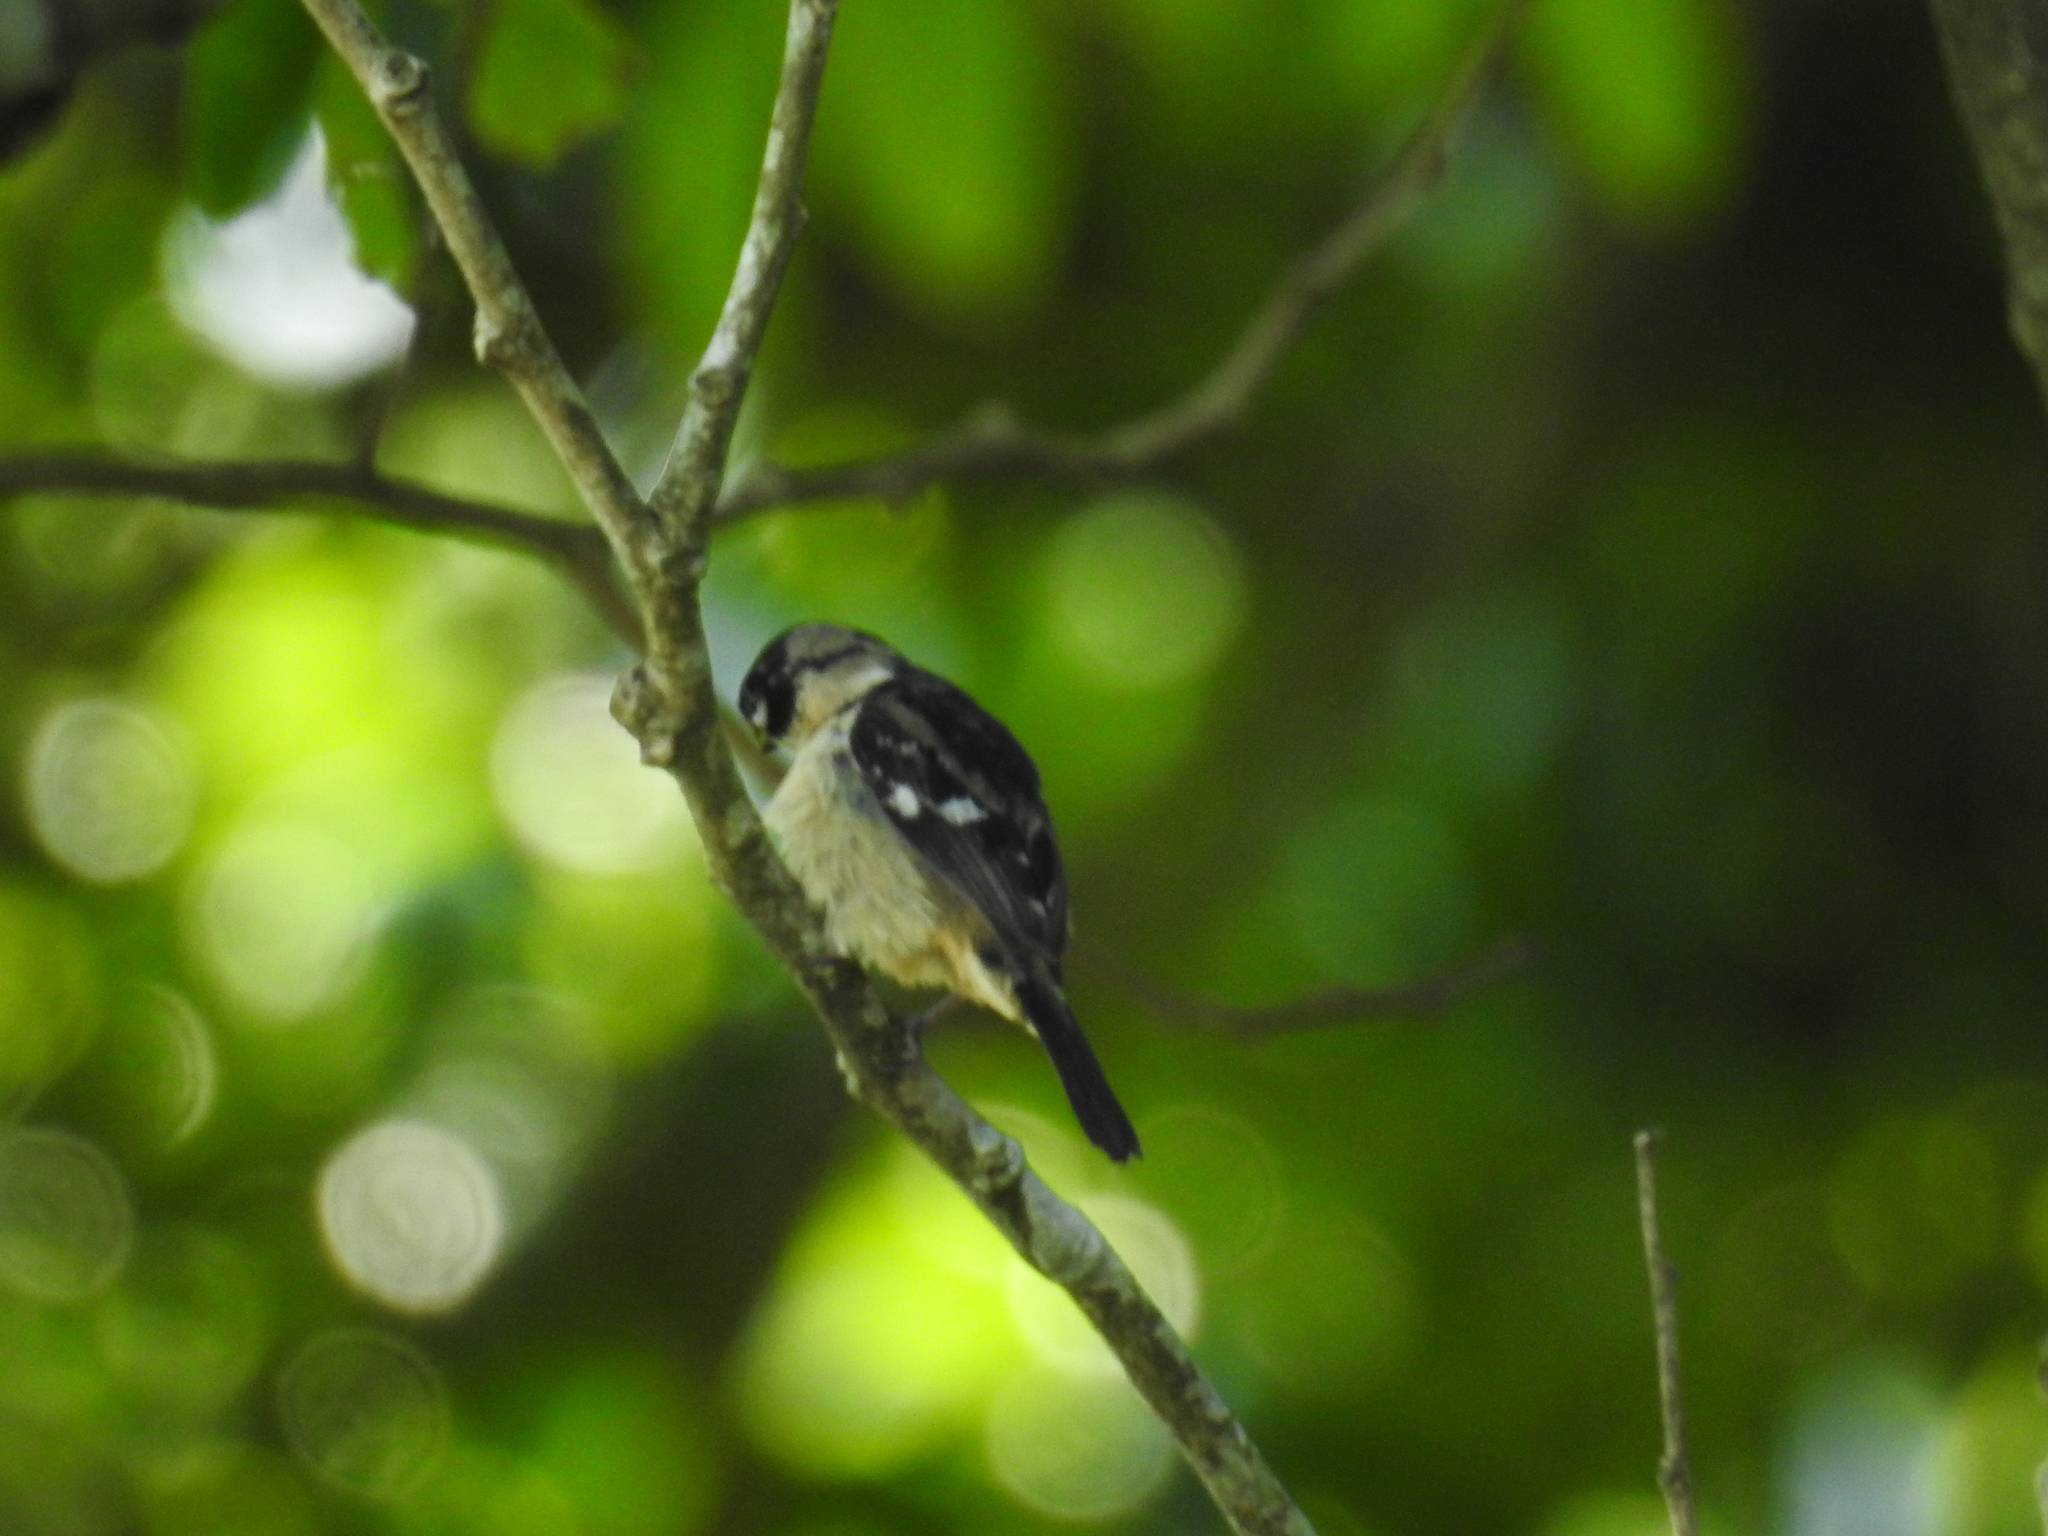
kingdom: Animalia
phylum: Chordata
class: Aves
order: Passeriformes
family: Thraupidae
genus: Sporophila
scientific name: Sporophila morelleti
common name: Morelet's seedeater
